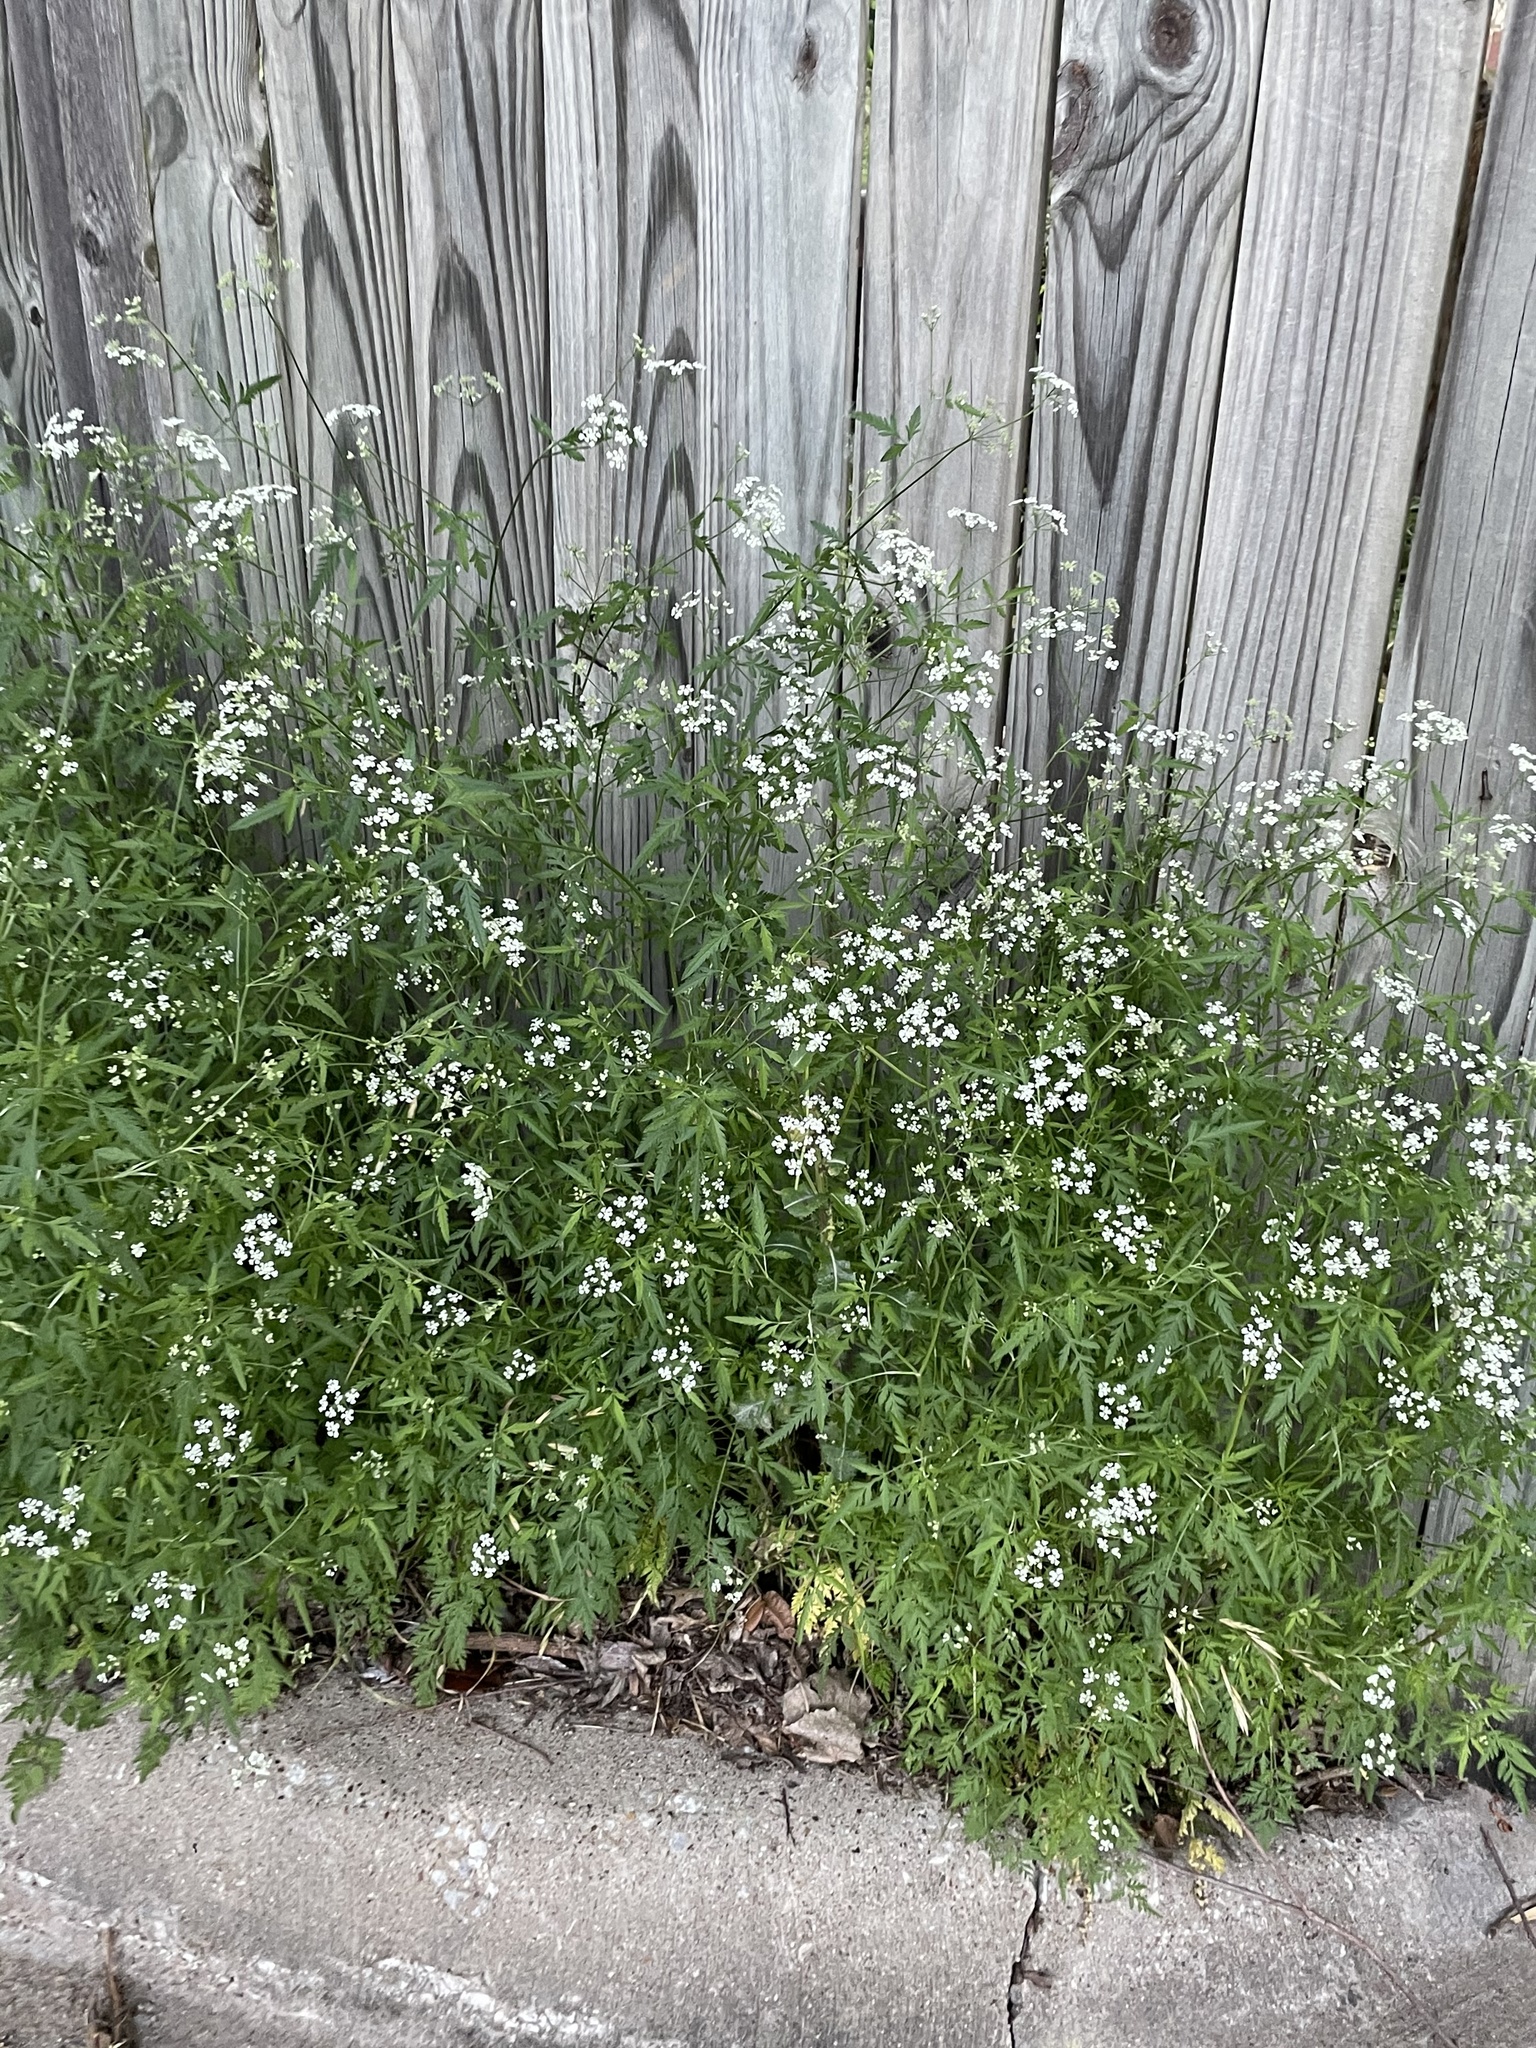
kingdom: Plantae
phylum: Tracheophyta
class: Magnoliopsida
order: Apiales
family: Apiaceae
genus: Torilis
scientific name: Torilis arvensis
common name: Spreading hedge-parsley
